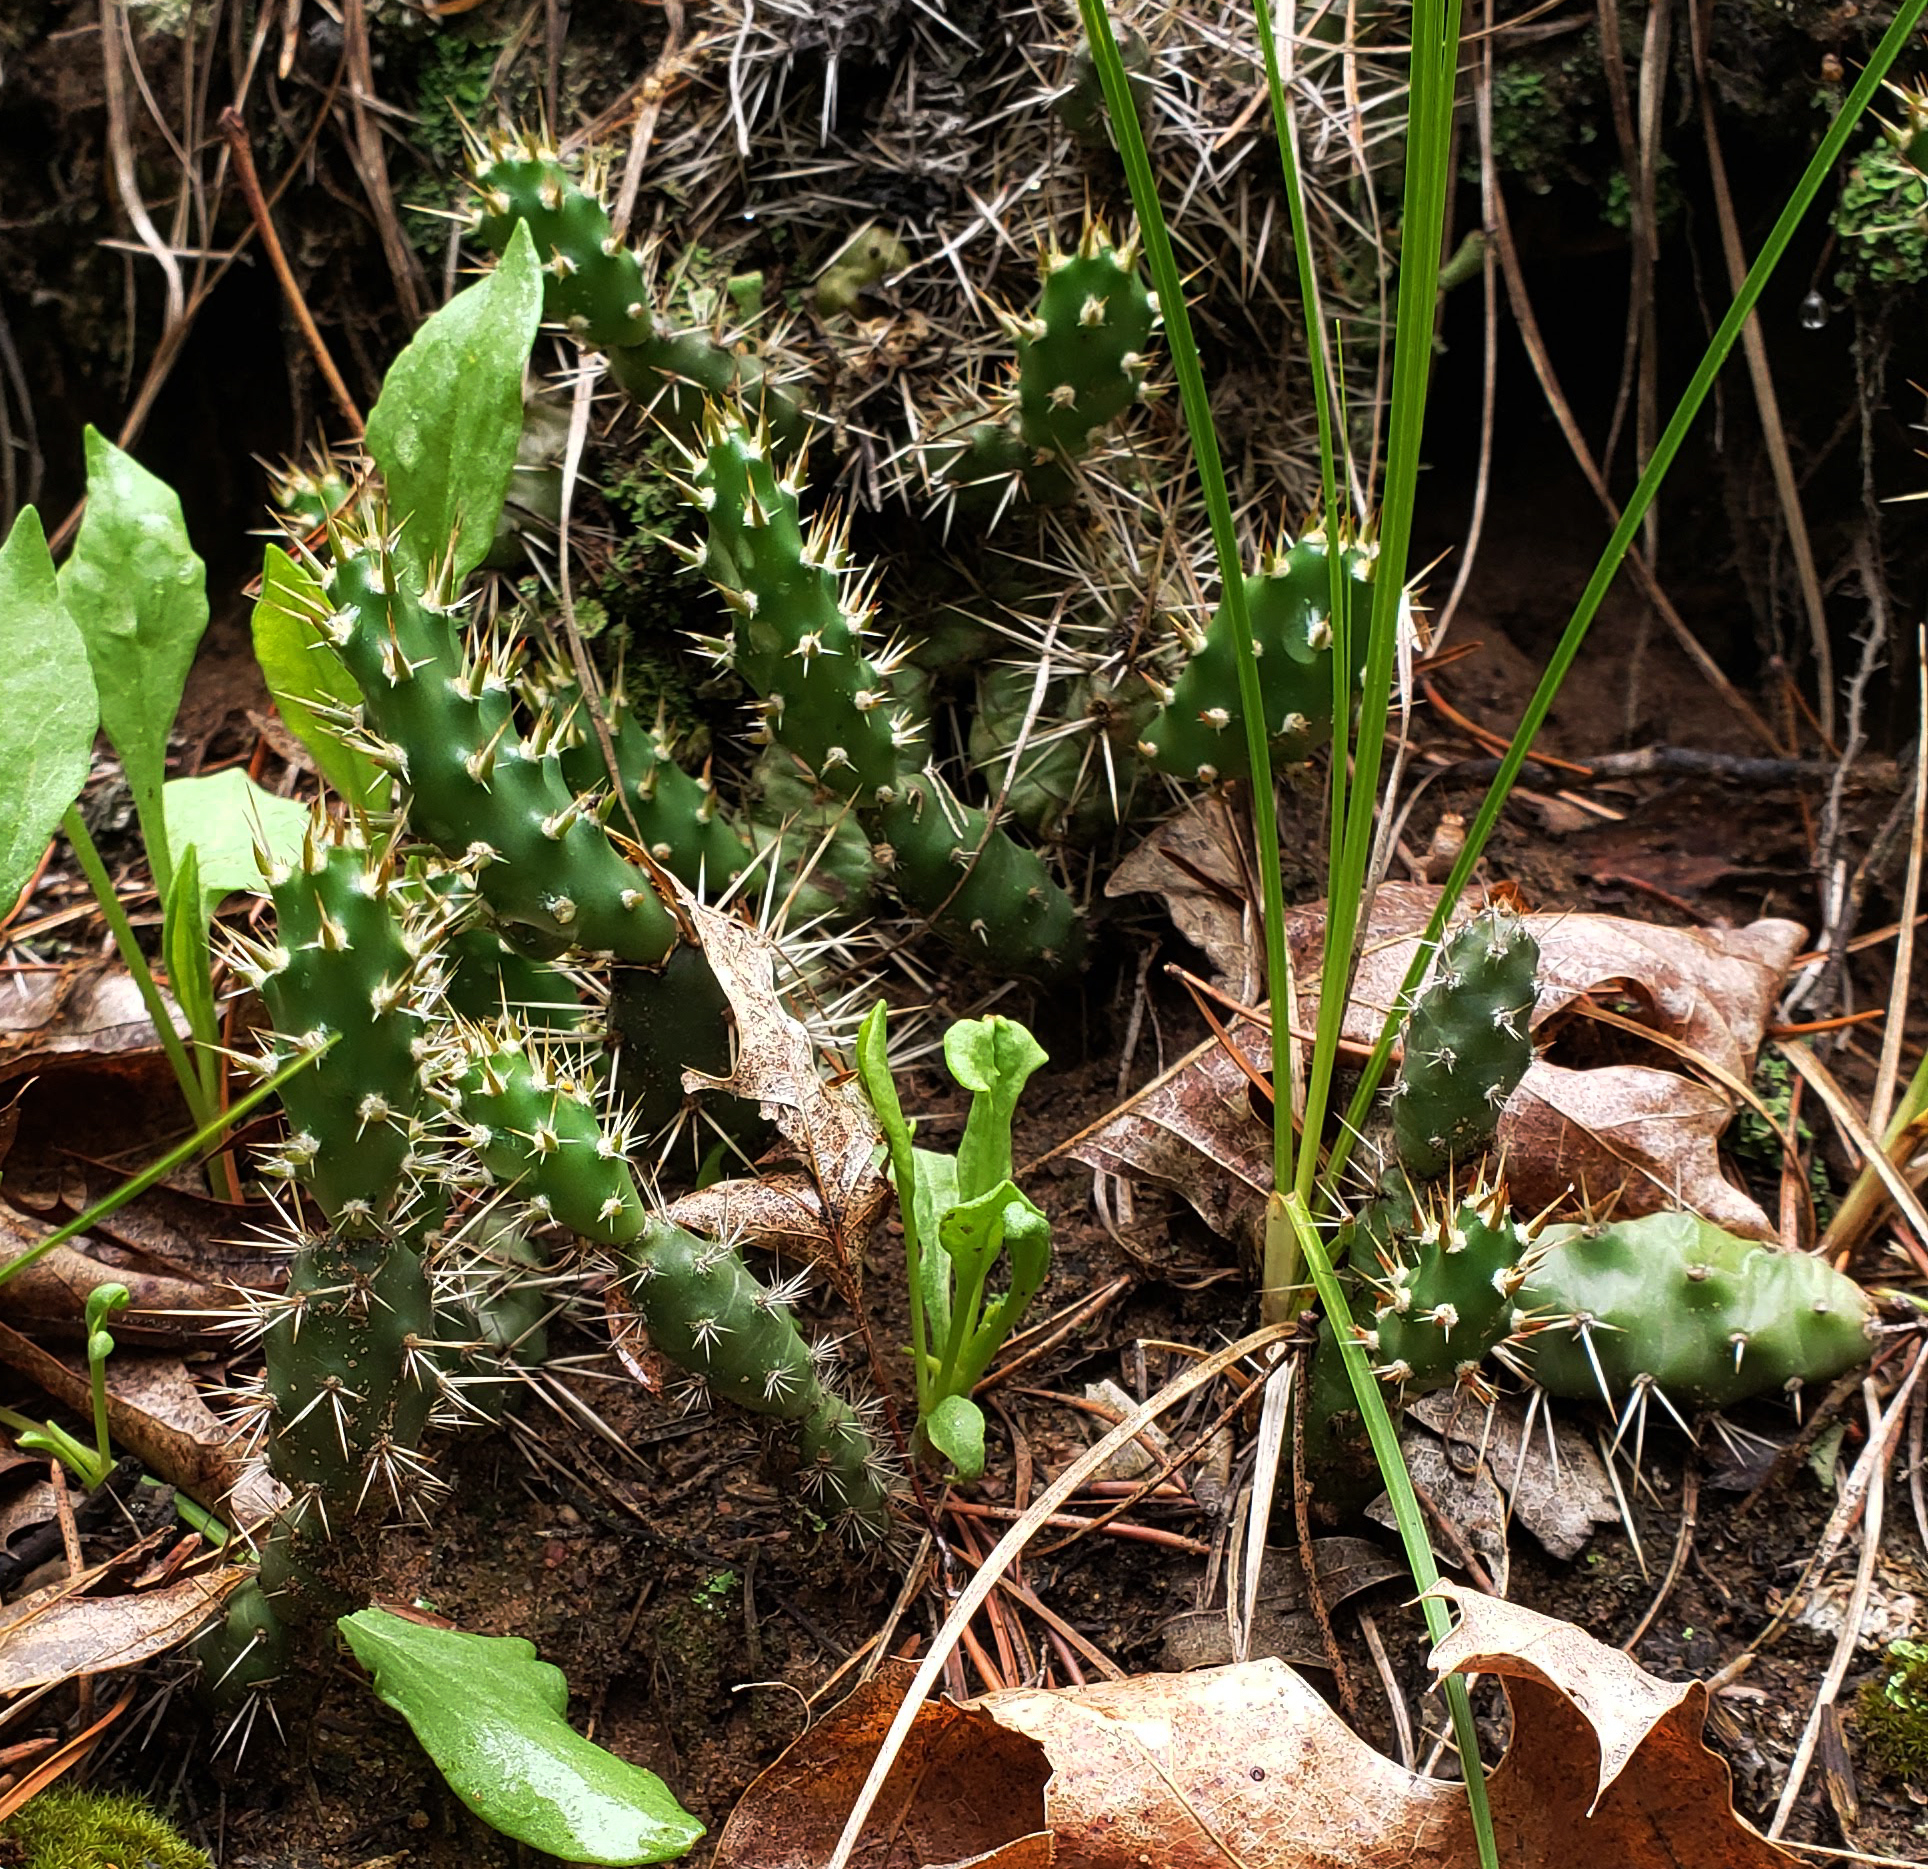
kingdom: Plantae
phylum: Tracheophyta
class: Magnoliopsida
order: Caryophyllales
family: Cactaceae
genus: Opuntia
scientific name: Opuntia fragilis
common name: Brittle cactus
